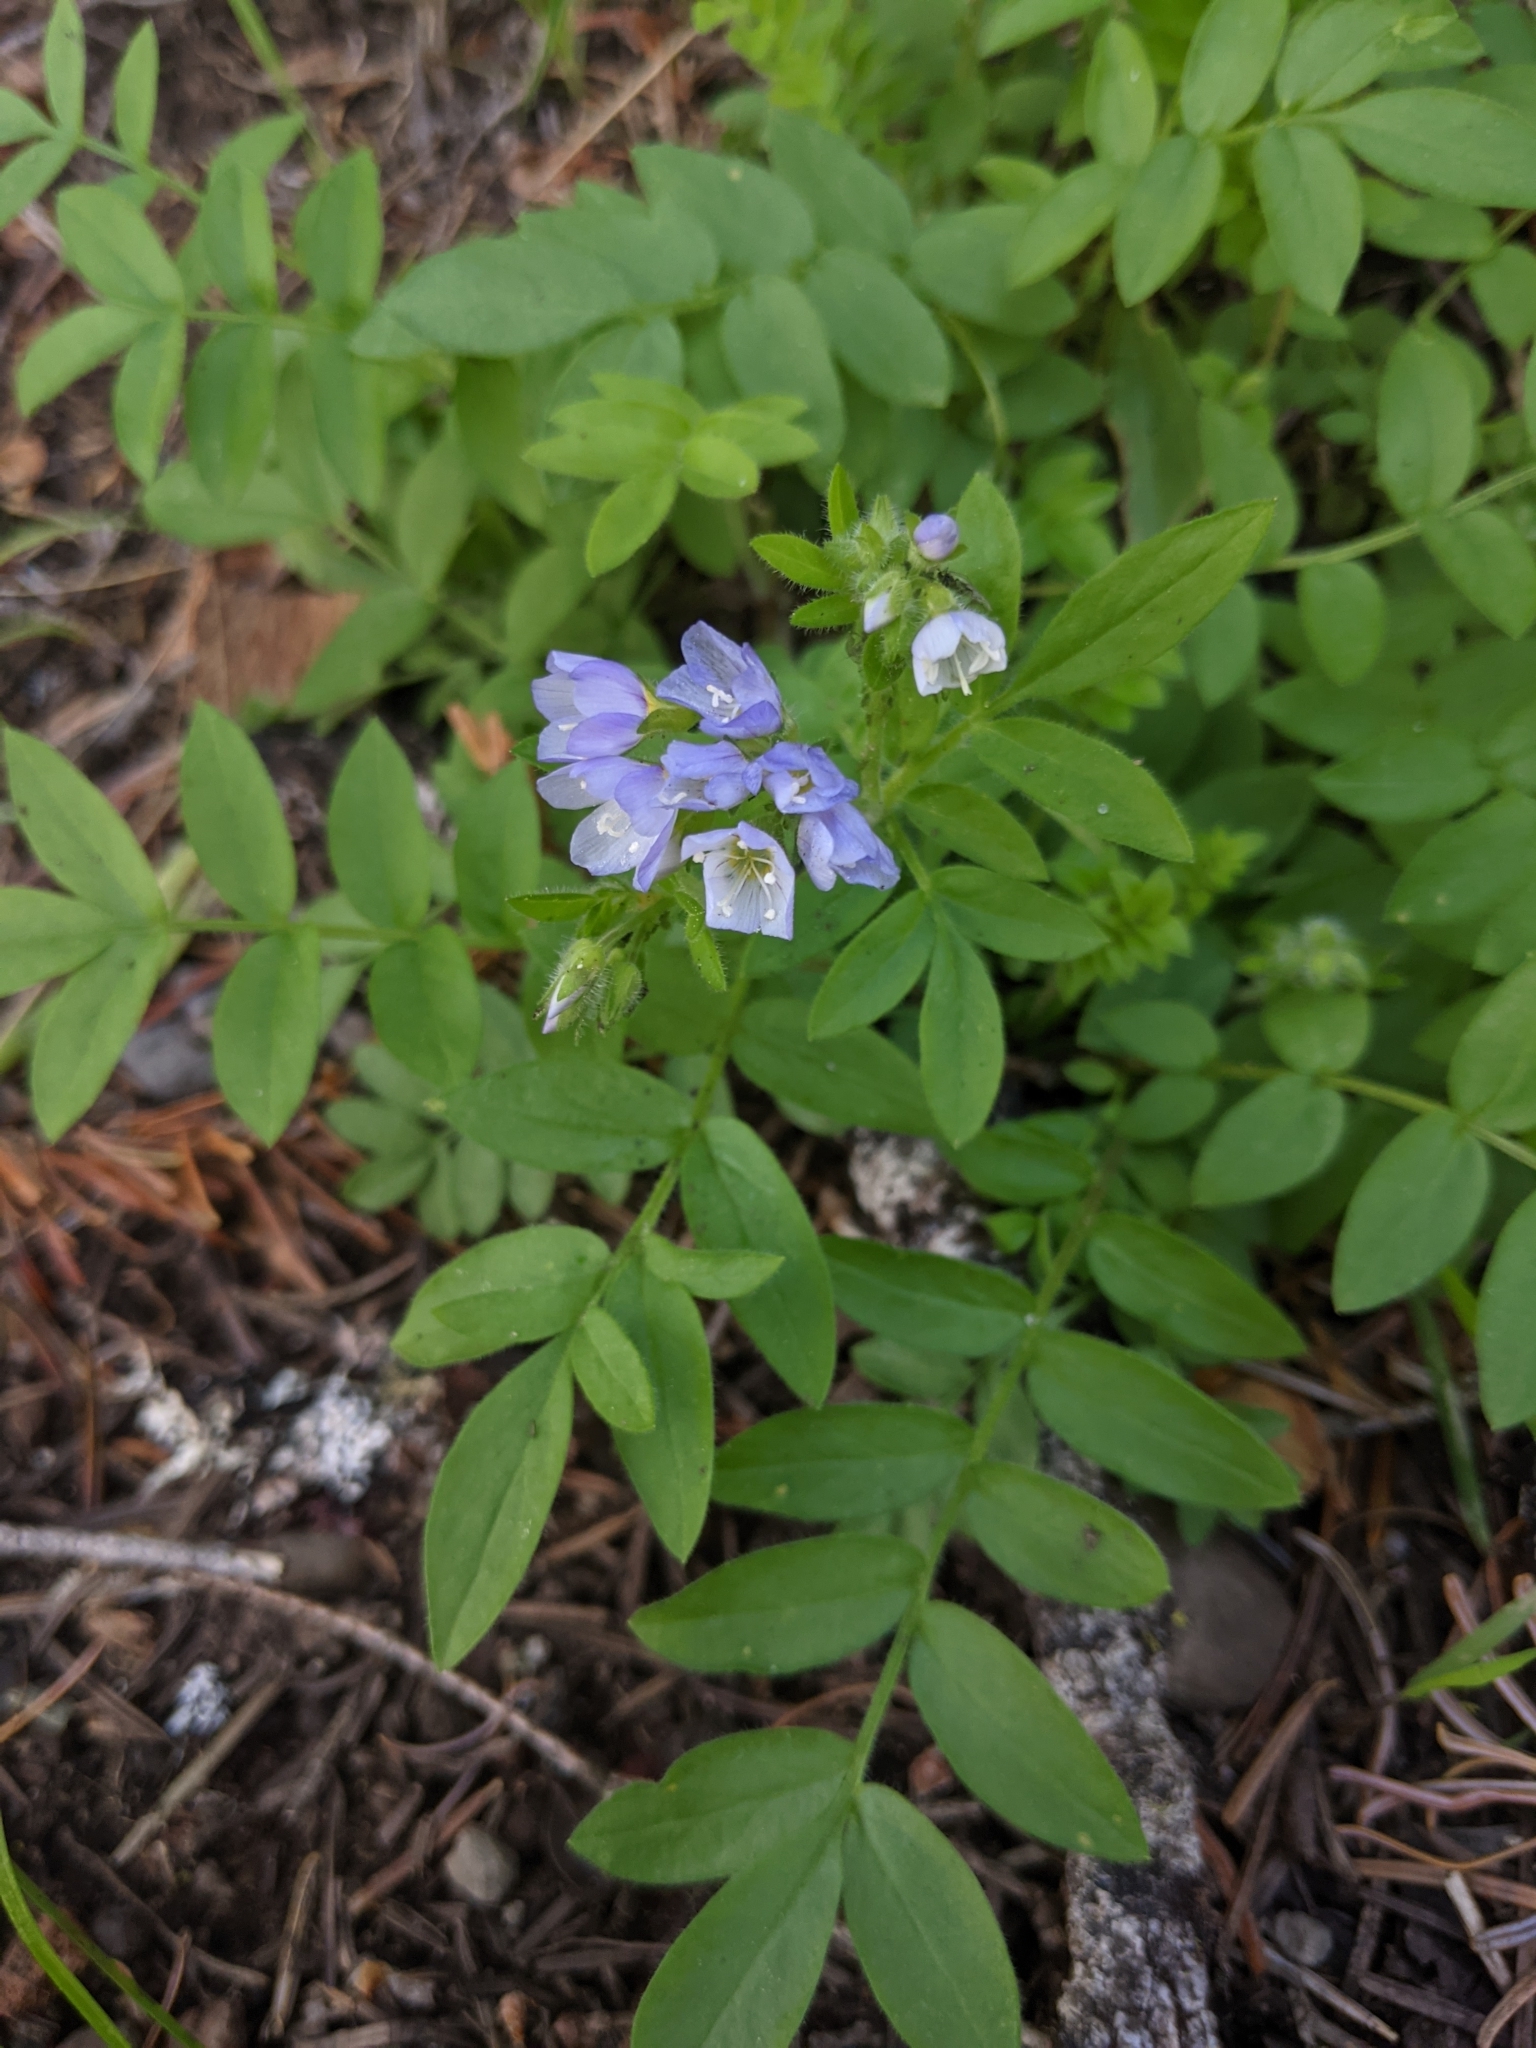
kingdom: Plantae
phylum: Tracheophyta
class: Magnoliopsida
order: Ericales
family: Polemoniaceae
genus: Polemonium
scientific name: Polemonium californicum
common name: California jacob's ladder
